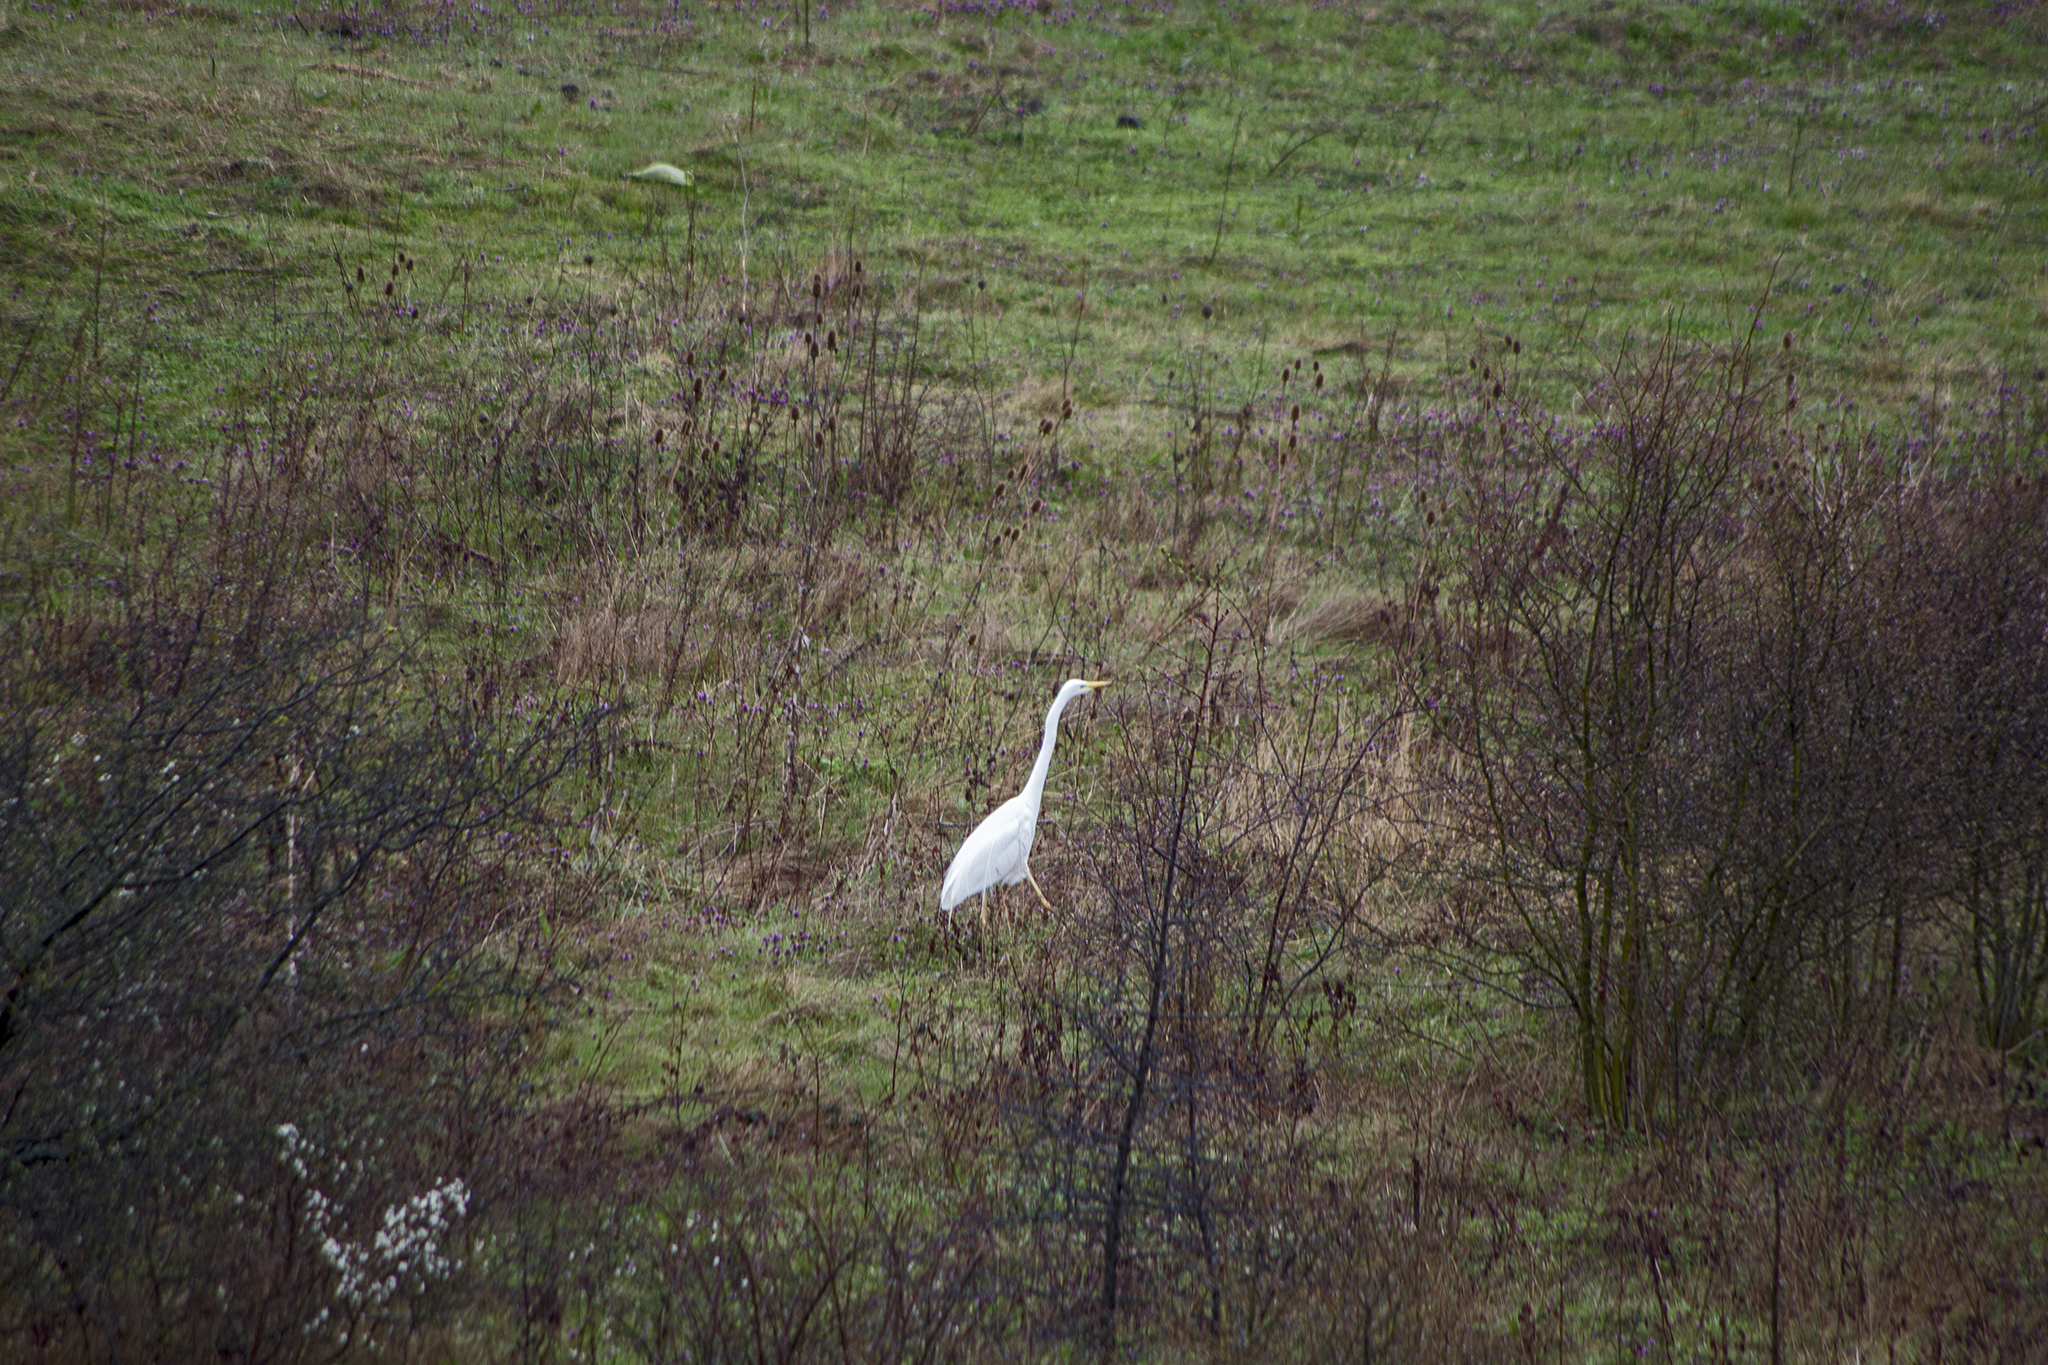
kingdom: Animalia
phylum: Chordata
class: Aves
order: Pelecaniformes
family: Ardeidae
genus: Ardea
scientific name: Ardea alba
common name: Great egret
